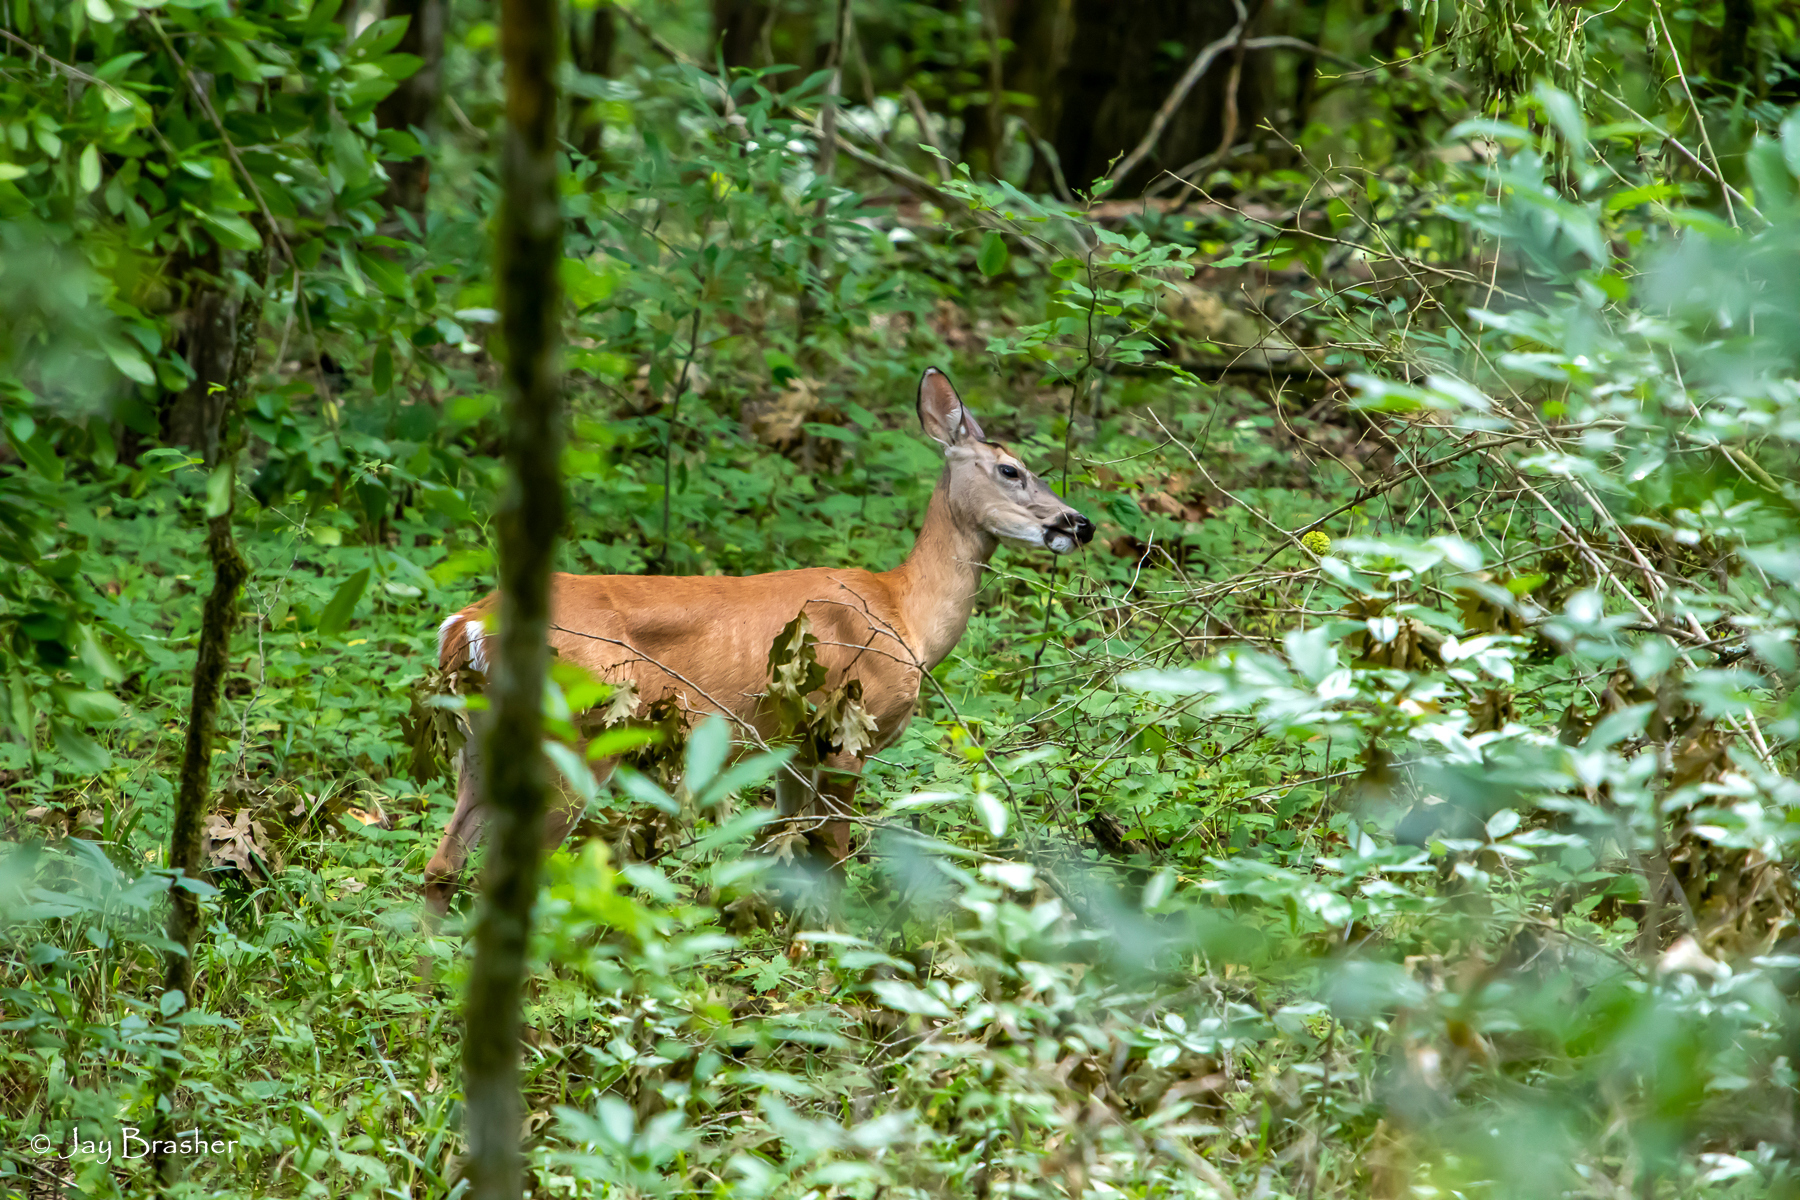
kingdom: Animalia
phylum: Chordata
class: Mammalia
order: Artiodactyla
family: Cervidae
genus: Odocoileus
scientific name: Odocoileus virginianus
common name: White-tailed deer
